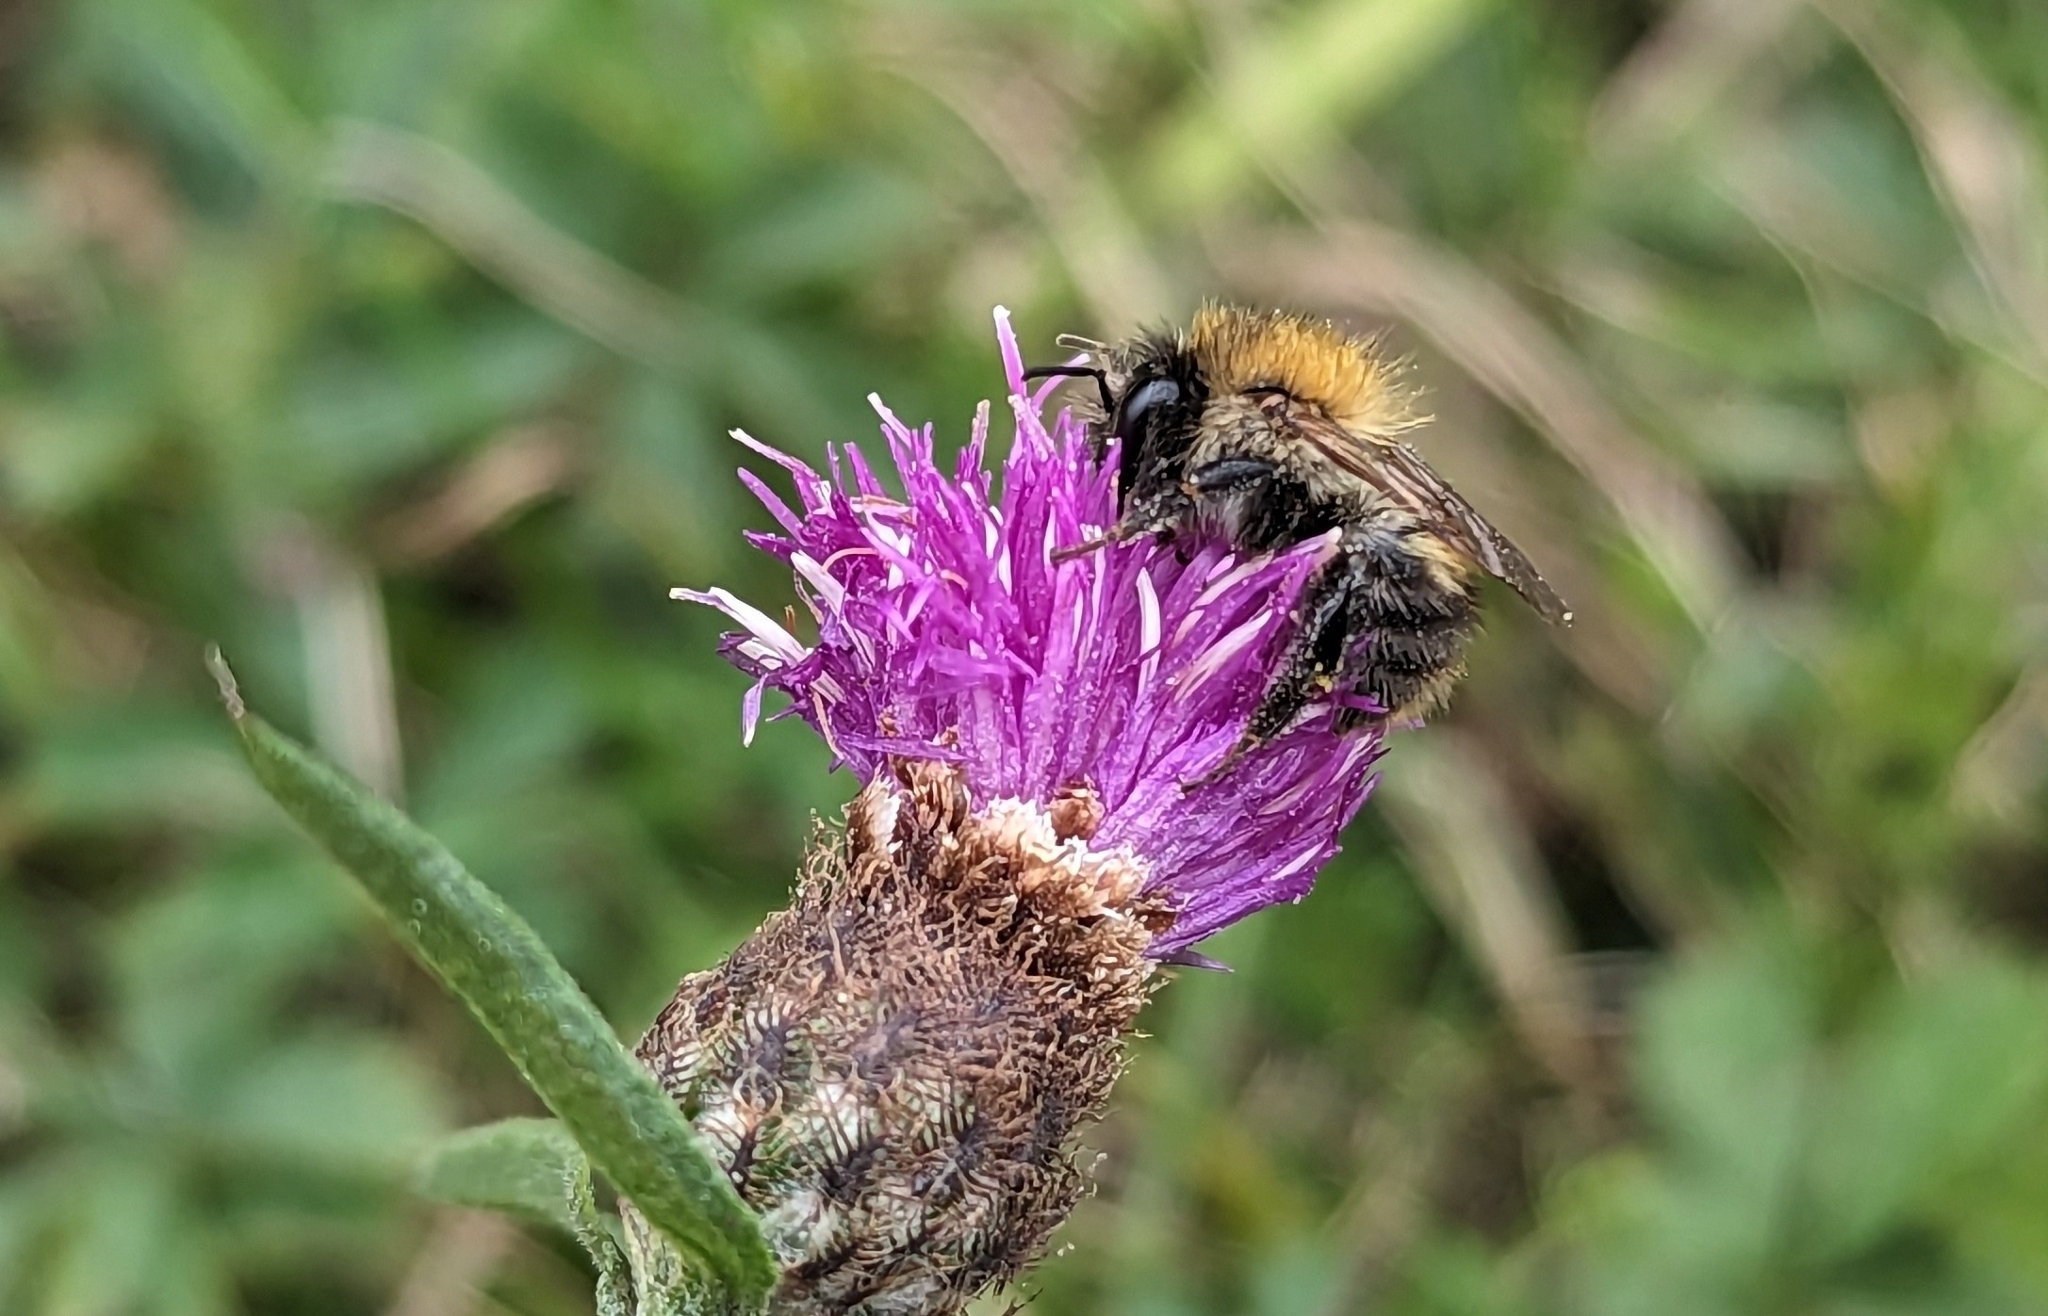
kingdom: Animalia
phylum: Arthropoda
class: Insecta
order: Hymenoptera
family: Apidae
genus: Bombus
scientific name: Bombus pascuorum
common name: Common carder bee
